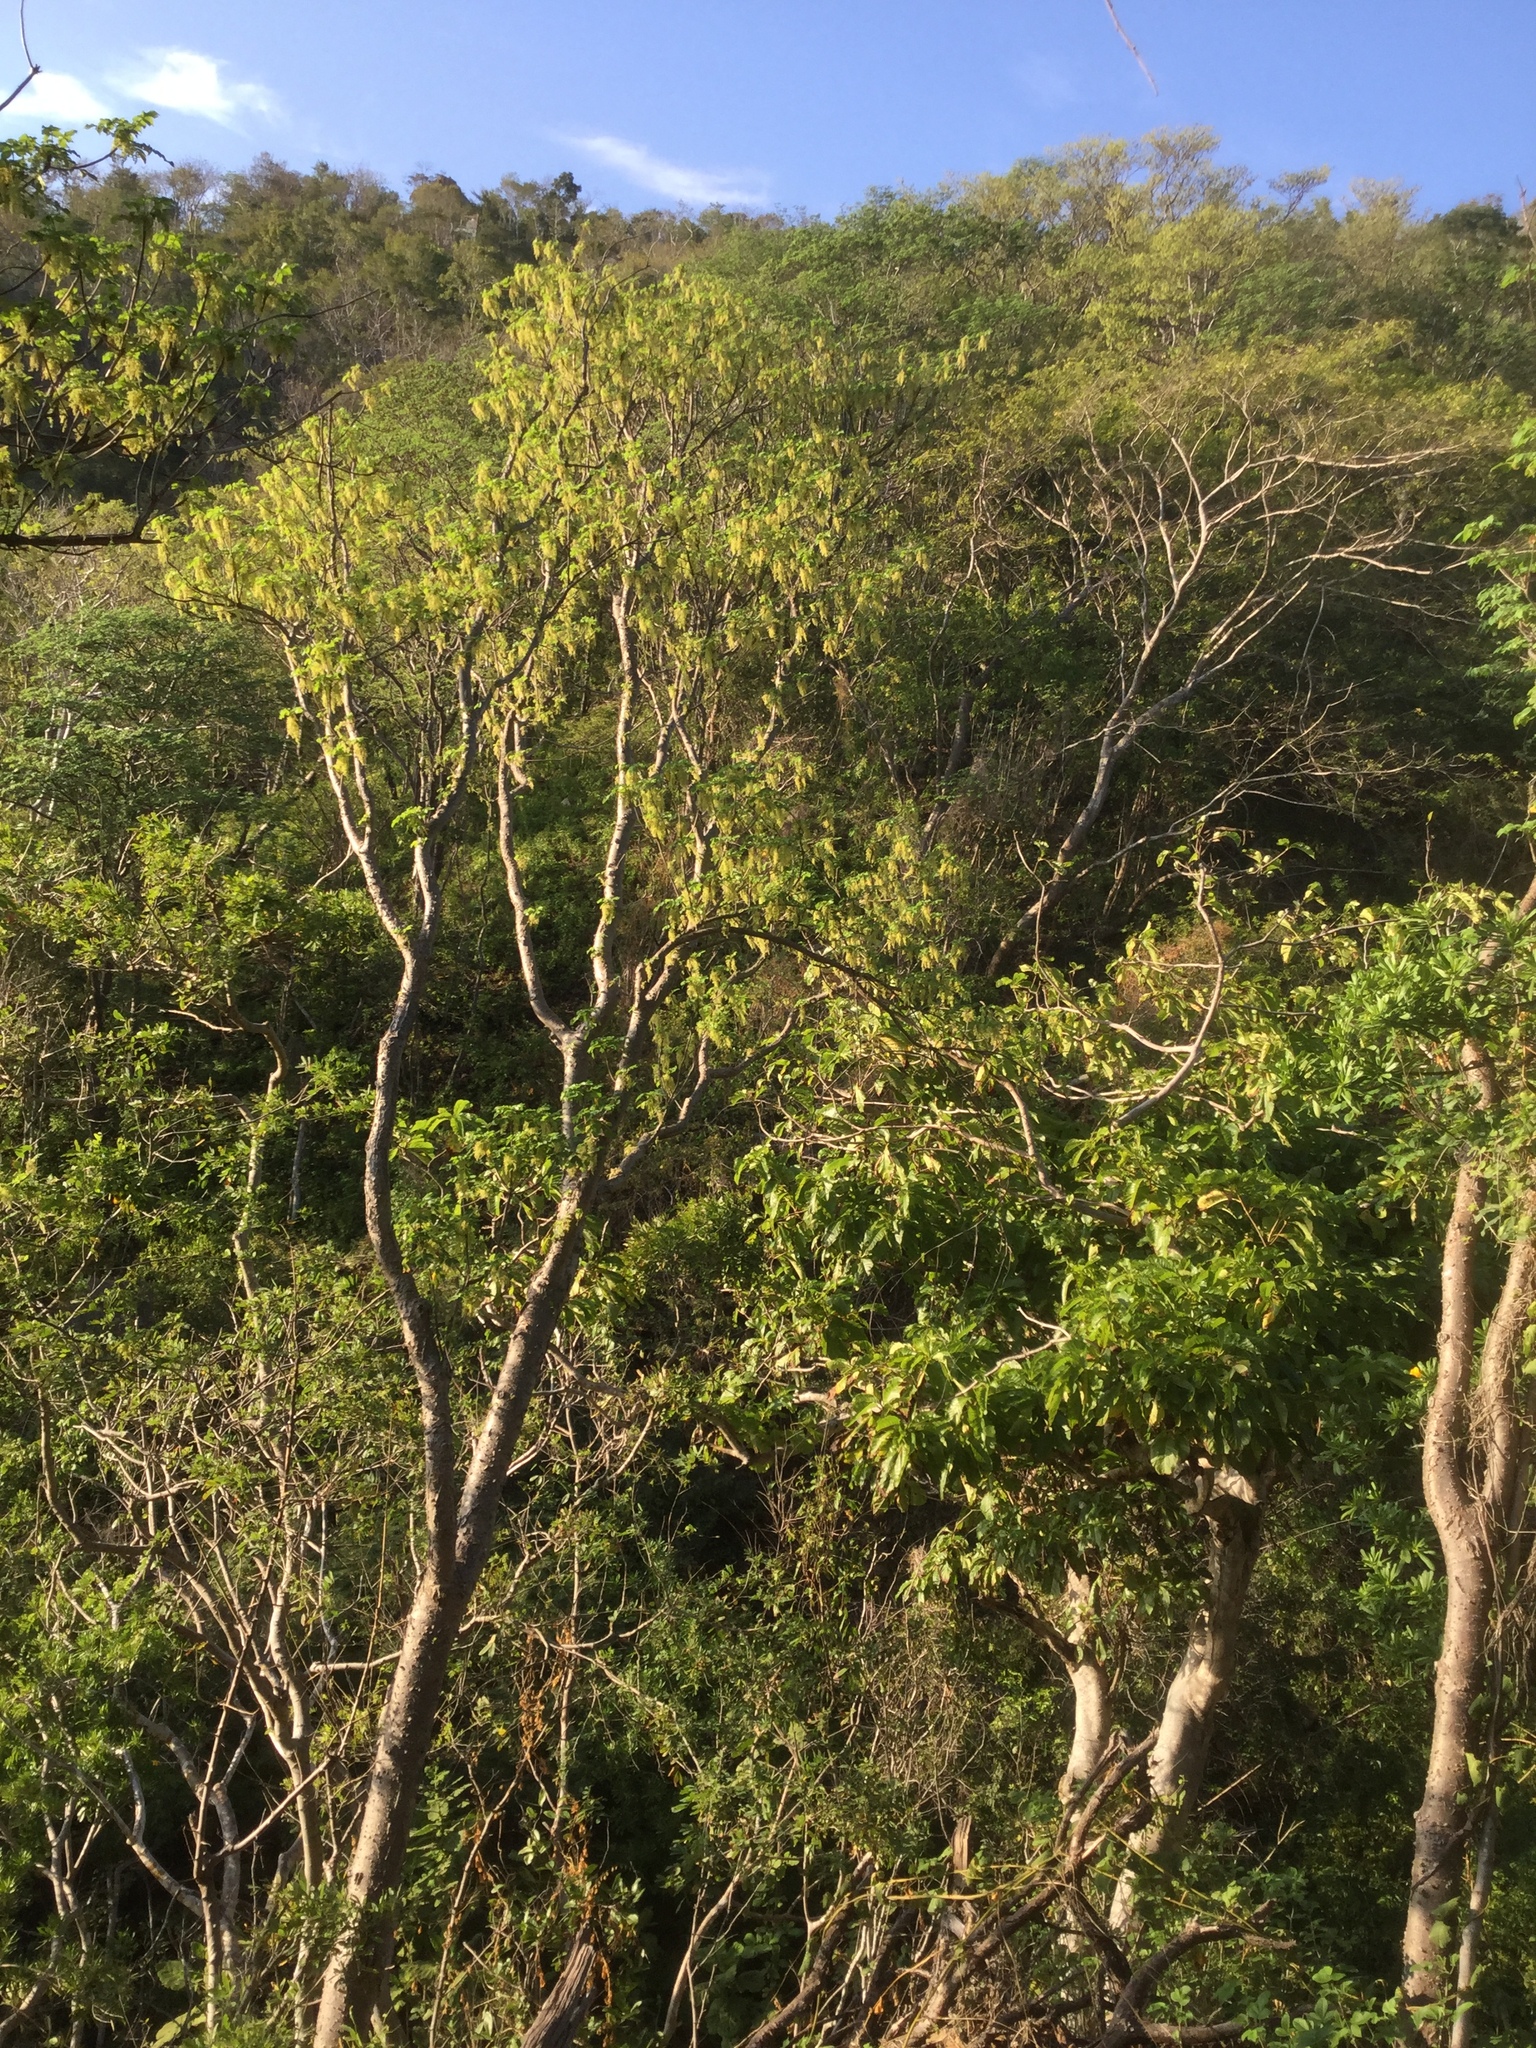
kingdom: Plantae
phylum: Tracheophyta
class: Magnoliopsida
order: Sapindales
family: Anacardiaceae
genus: Amphipterygium
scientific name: Amphipterygium adstringens
